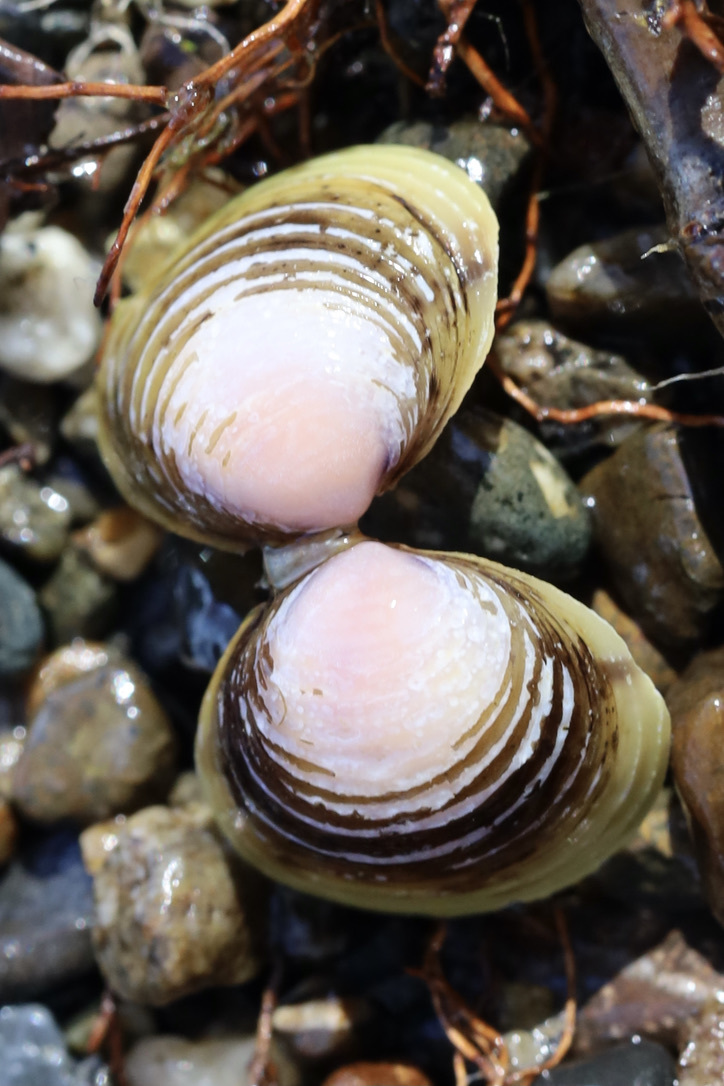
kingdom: Animalia
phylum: Mollusca
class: Bivalvia
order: Venerida
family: Cyrenidae
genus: Corbicula
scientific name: Corbicula fluminea
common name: Asian clam
